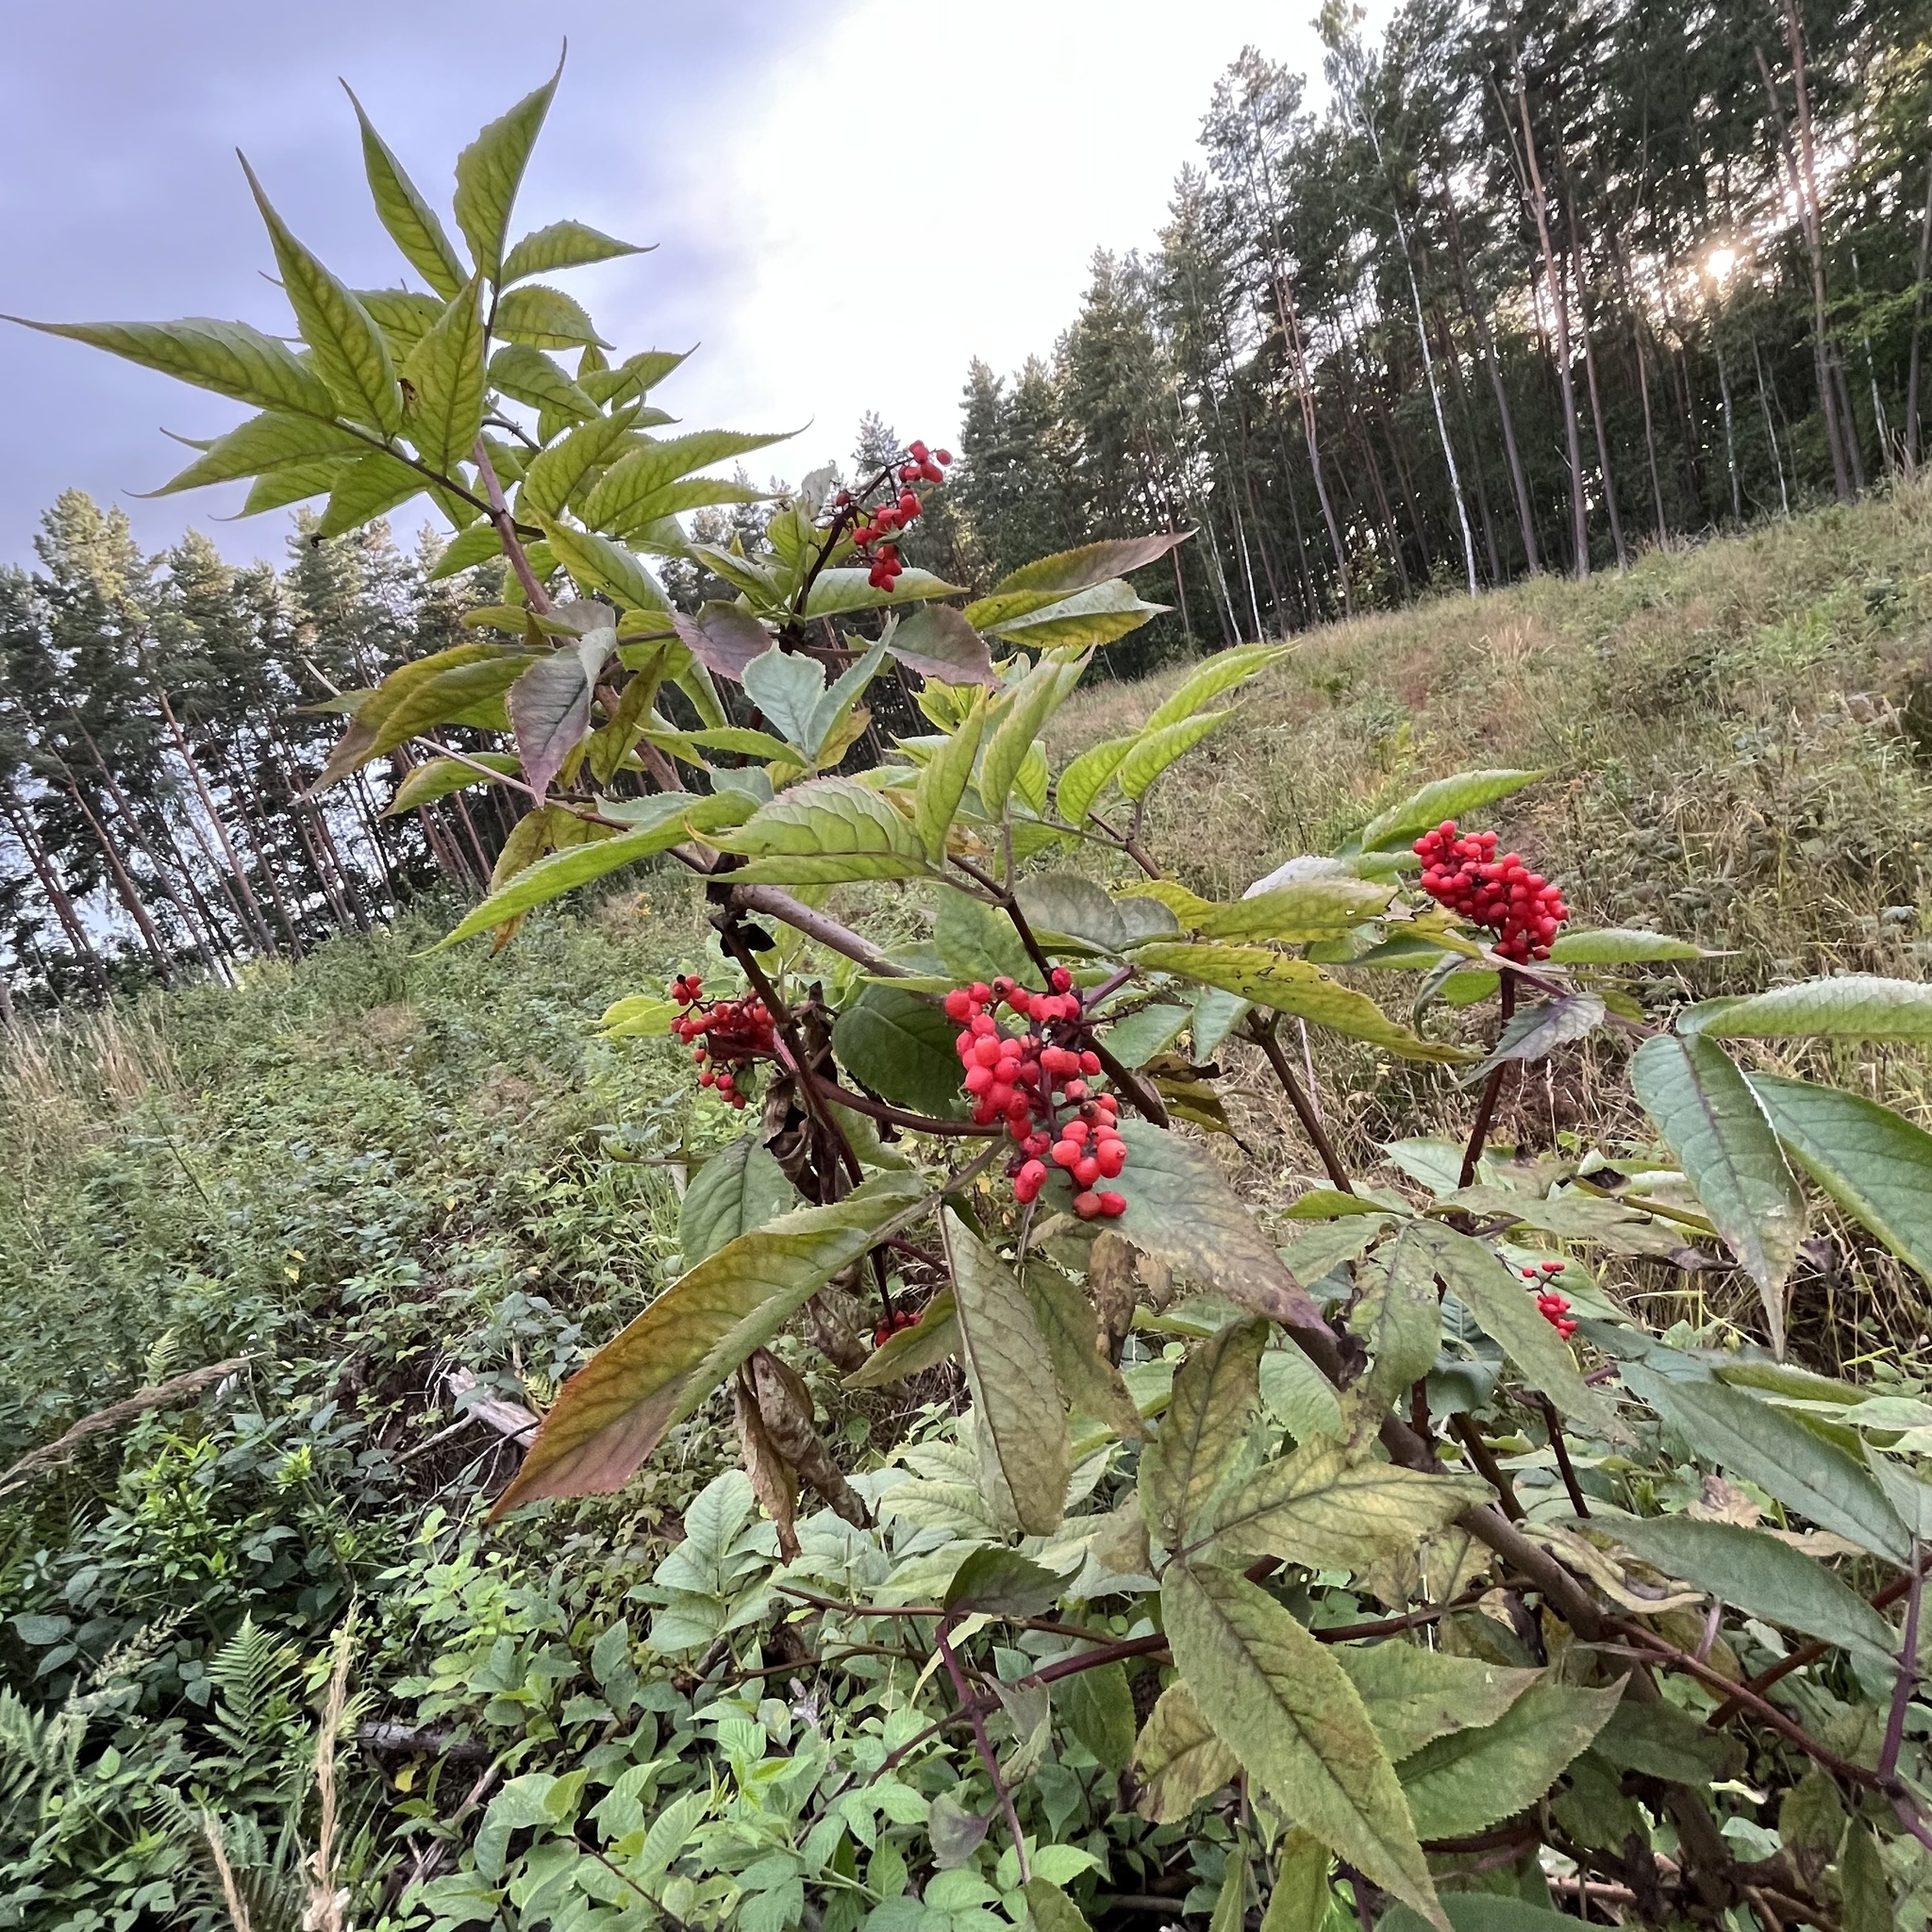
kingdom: Plantae
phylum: Tracheophyta
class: Magnoliopsida
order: Dipsacales
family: Viburnaceae
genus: Sambucus
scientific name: Sambucus racemosa
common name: Red-berried elder
